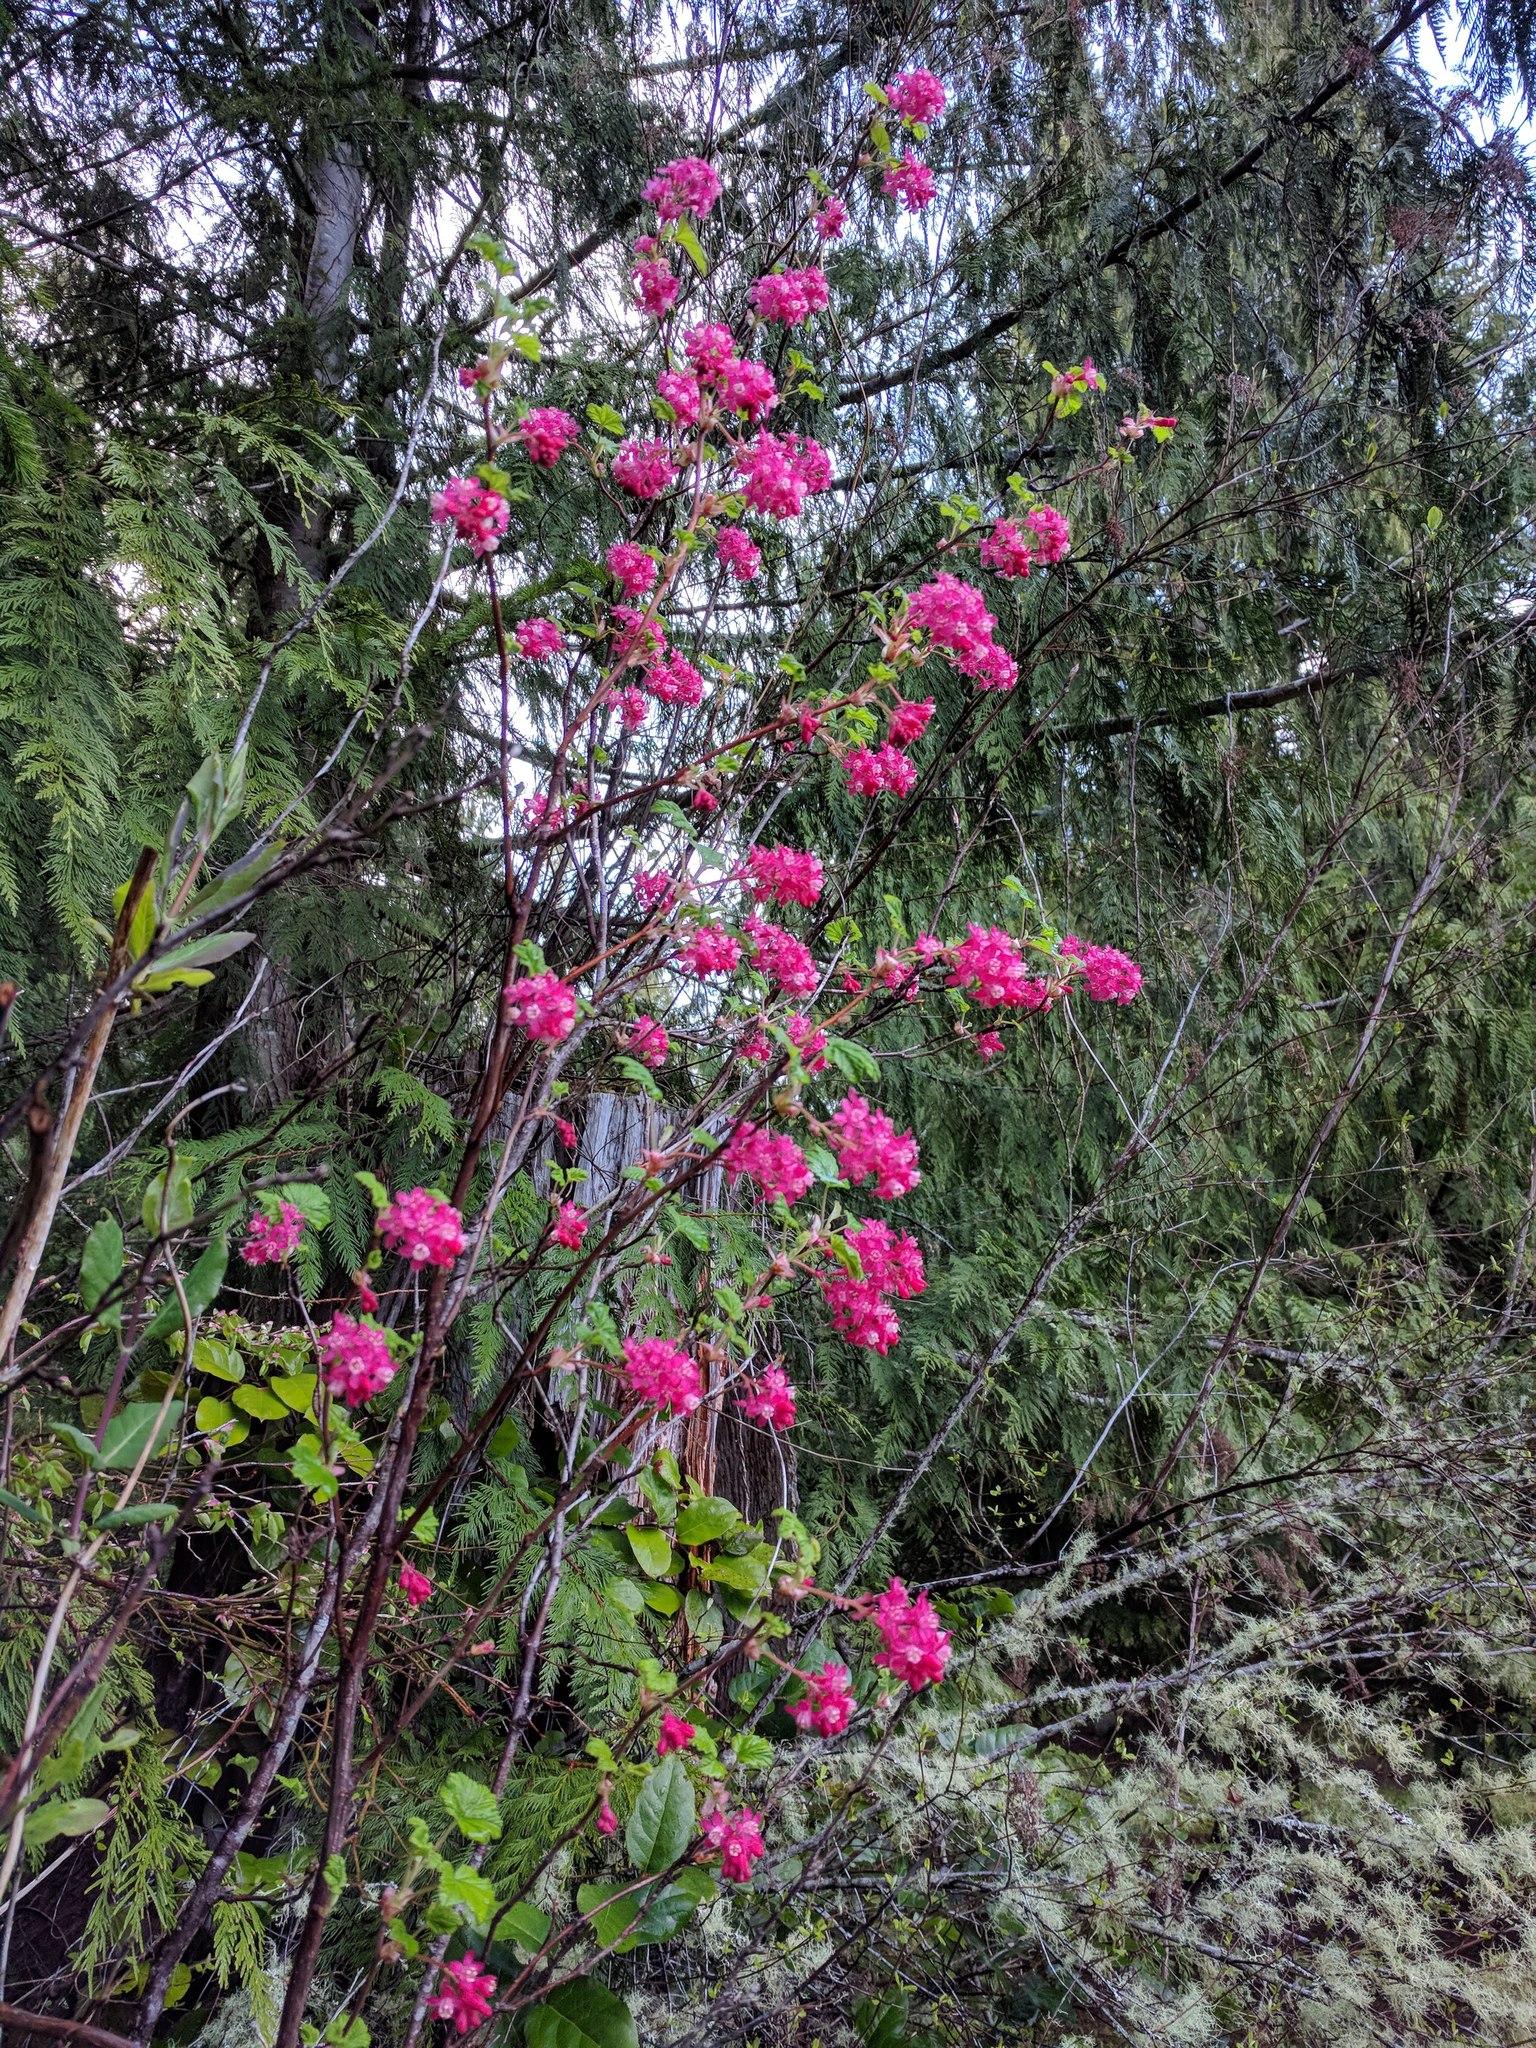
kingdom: Plantae
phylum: Tracheophyta
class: Magnoliopsida
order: Saxifragales
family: Grossulariaceae
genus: Ribes
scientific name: Ribes sanguineum
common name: Flowering currant
